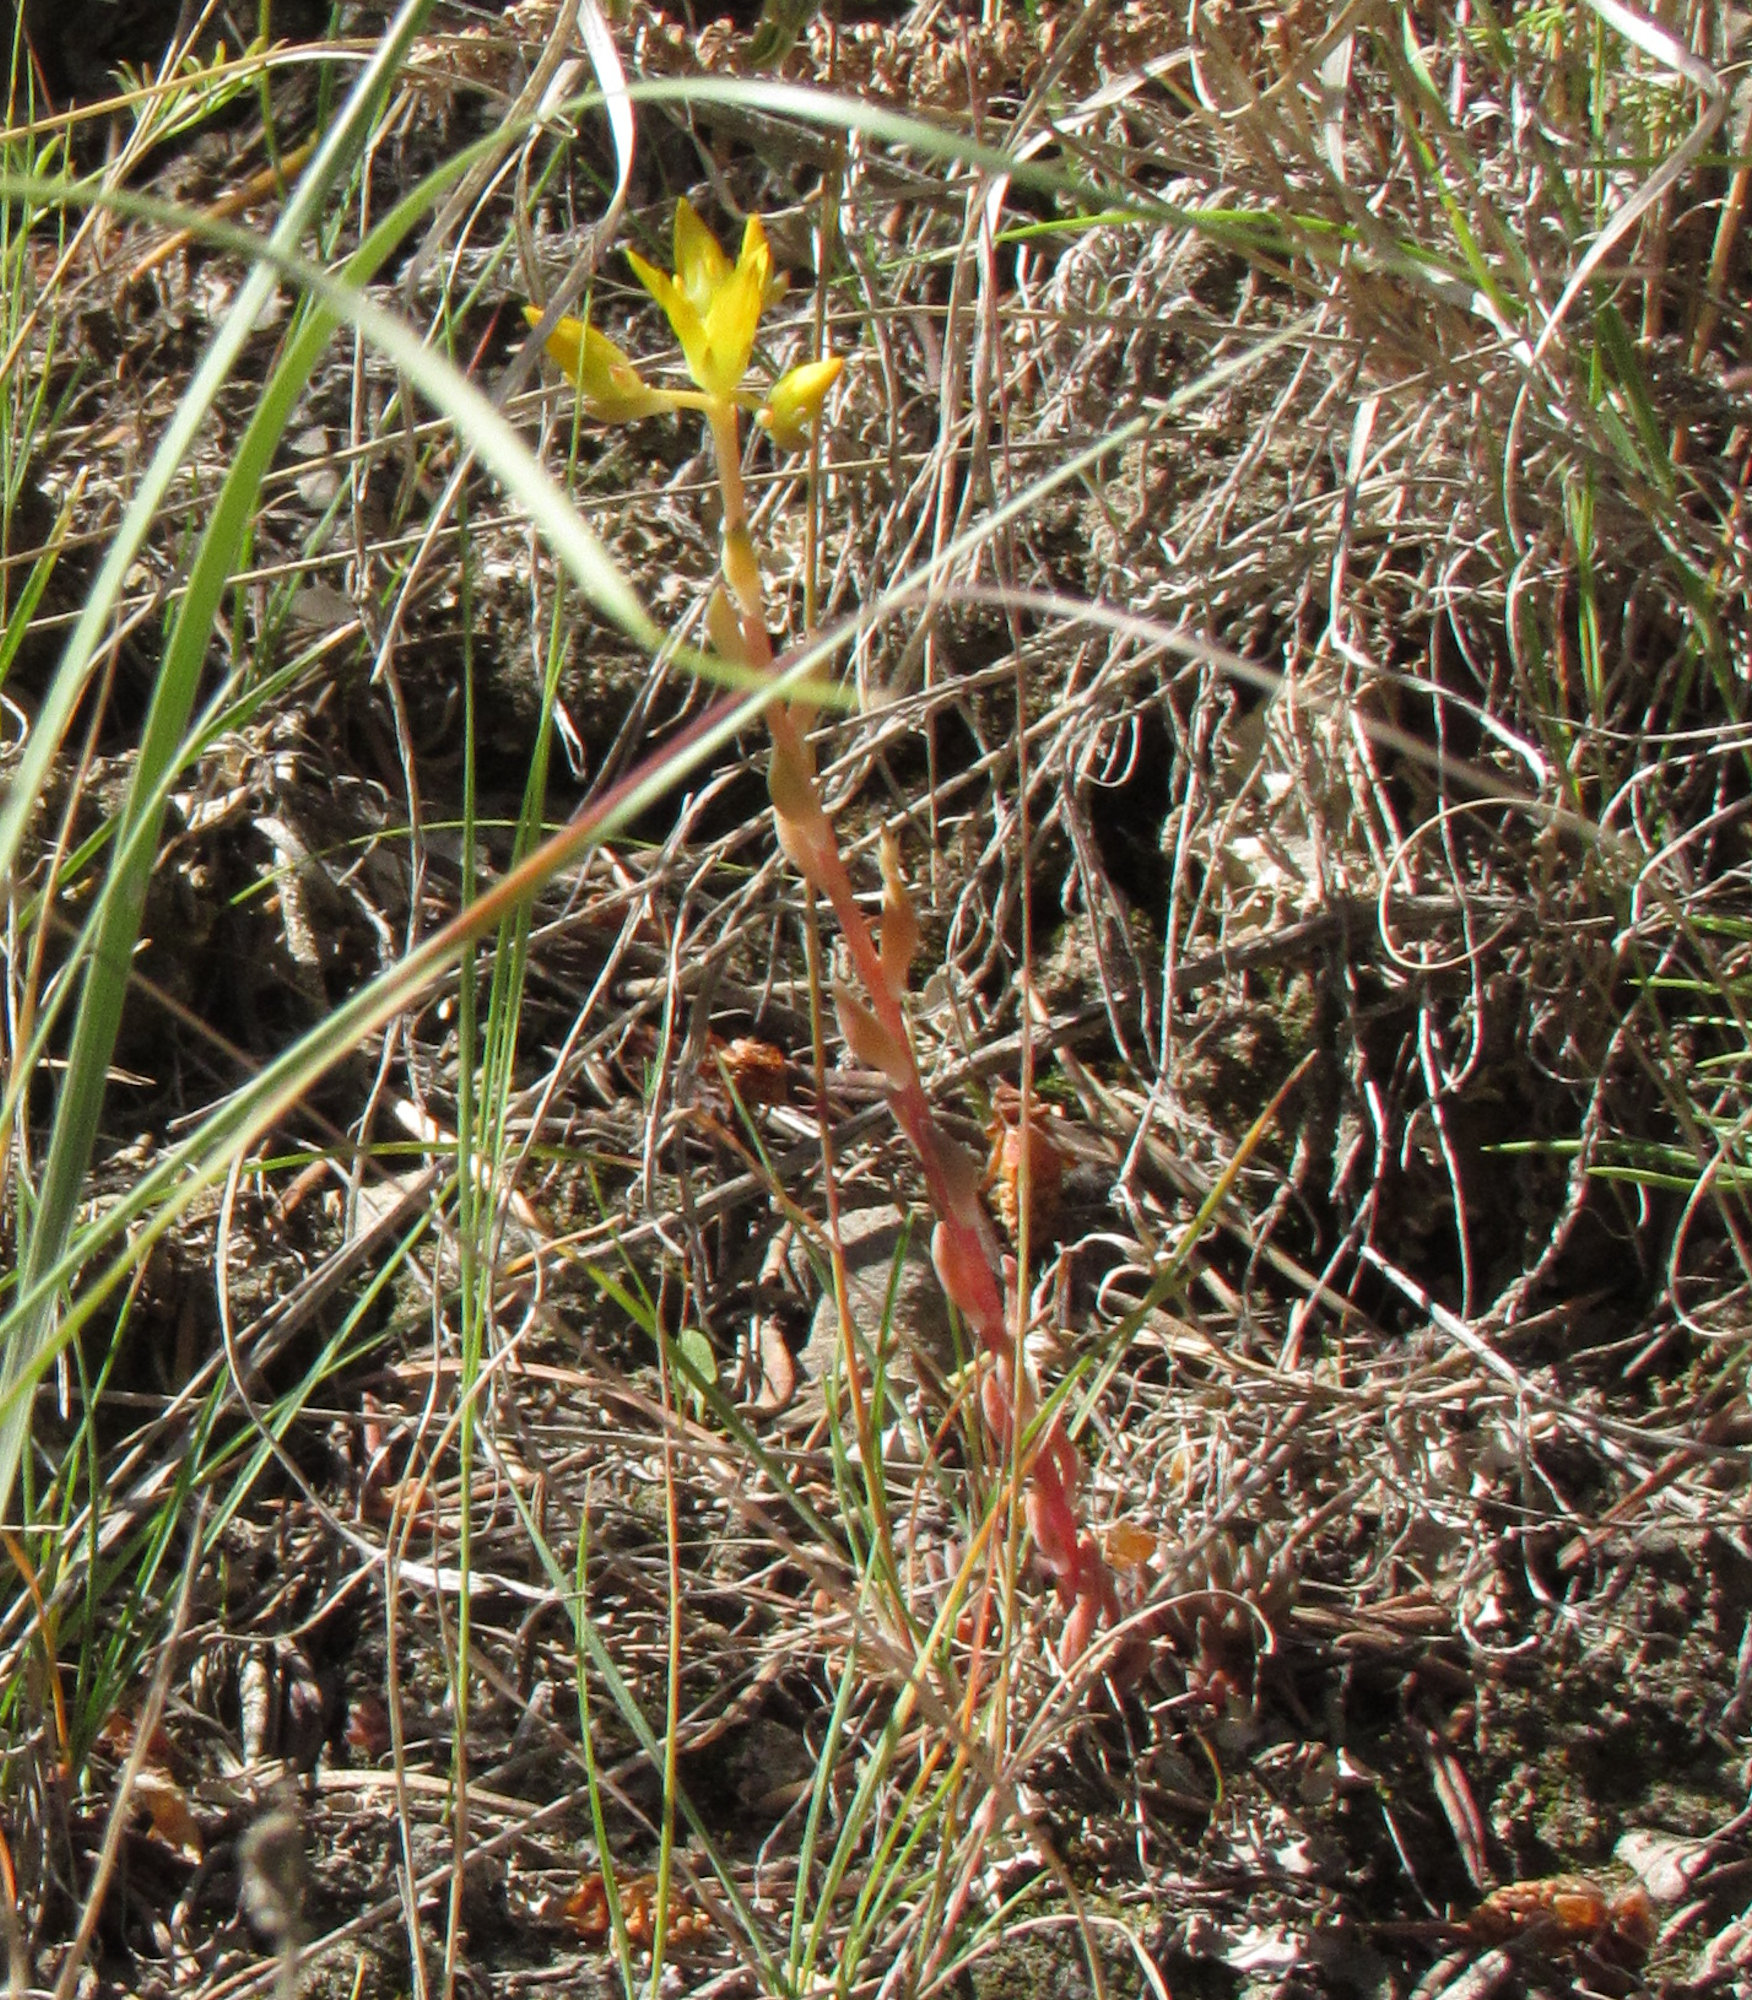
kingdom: Plantae
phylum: Tracheophyta
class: Magnoliopsida
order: Saxifragales
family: Crassulaceae
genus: Sedum
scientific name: Sedum lanceolatum
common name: Common stonecrop
